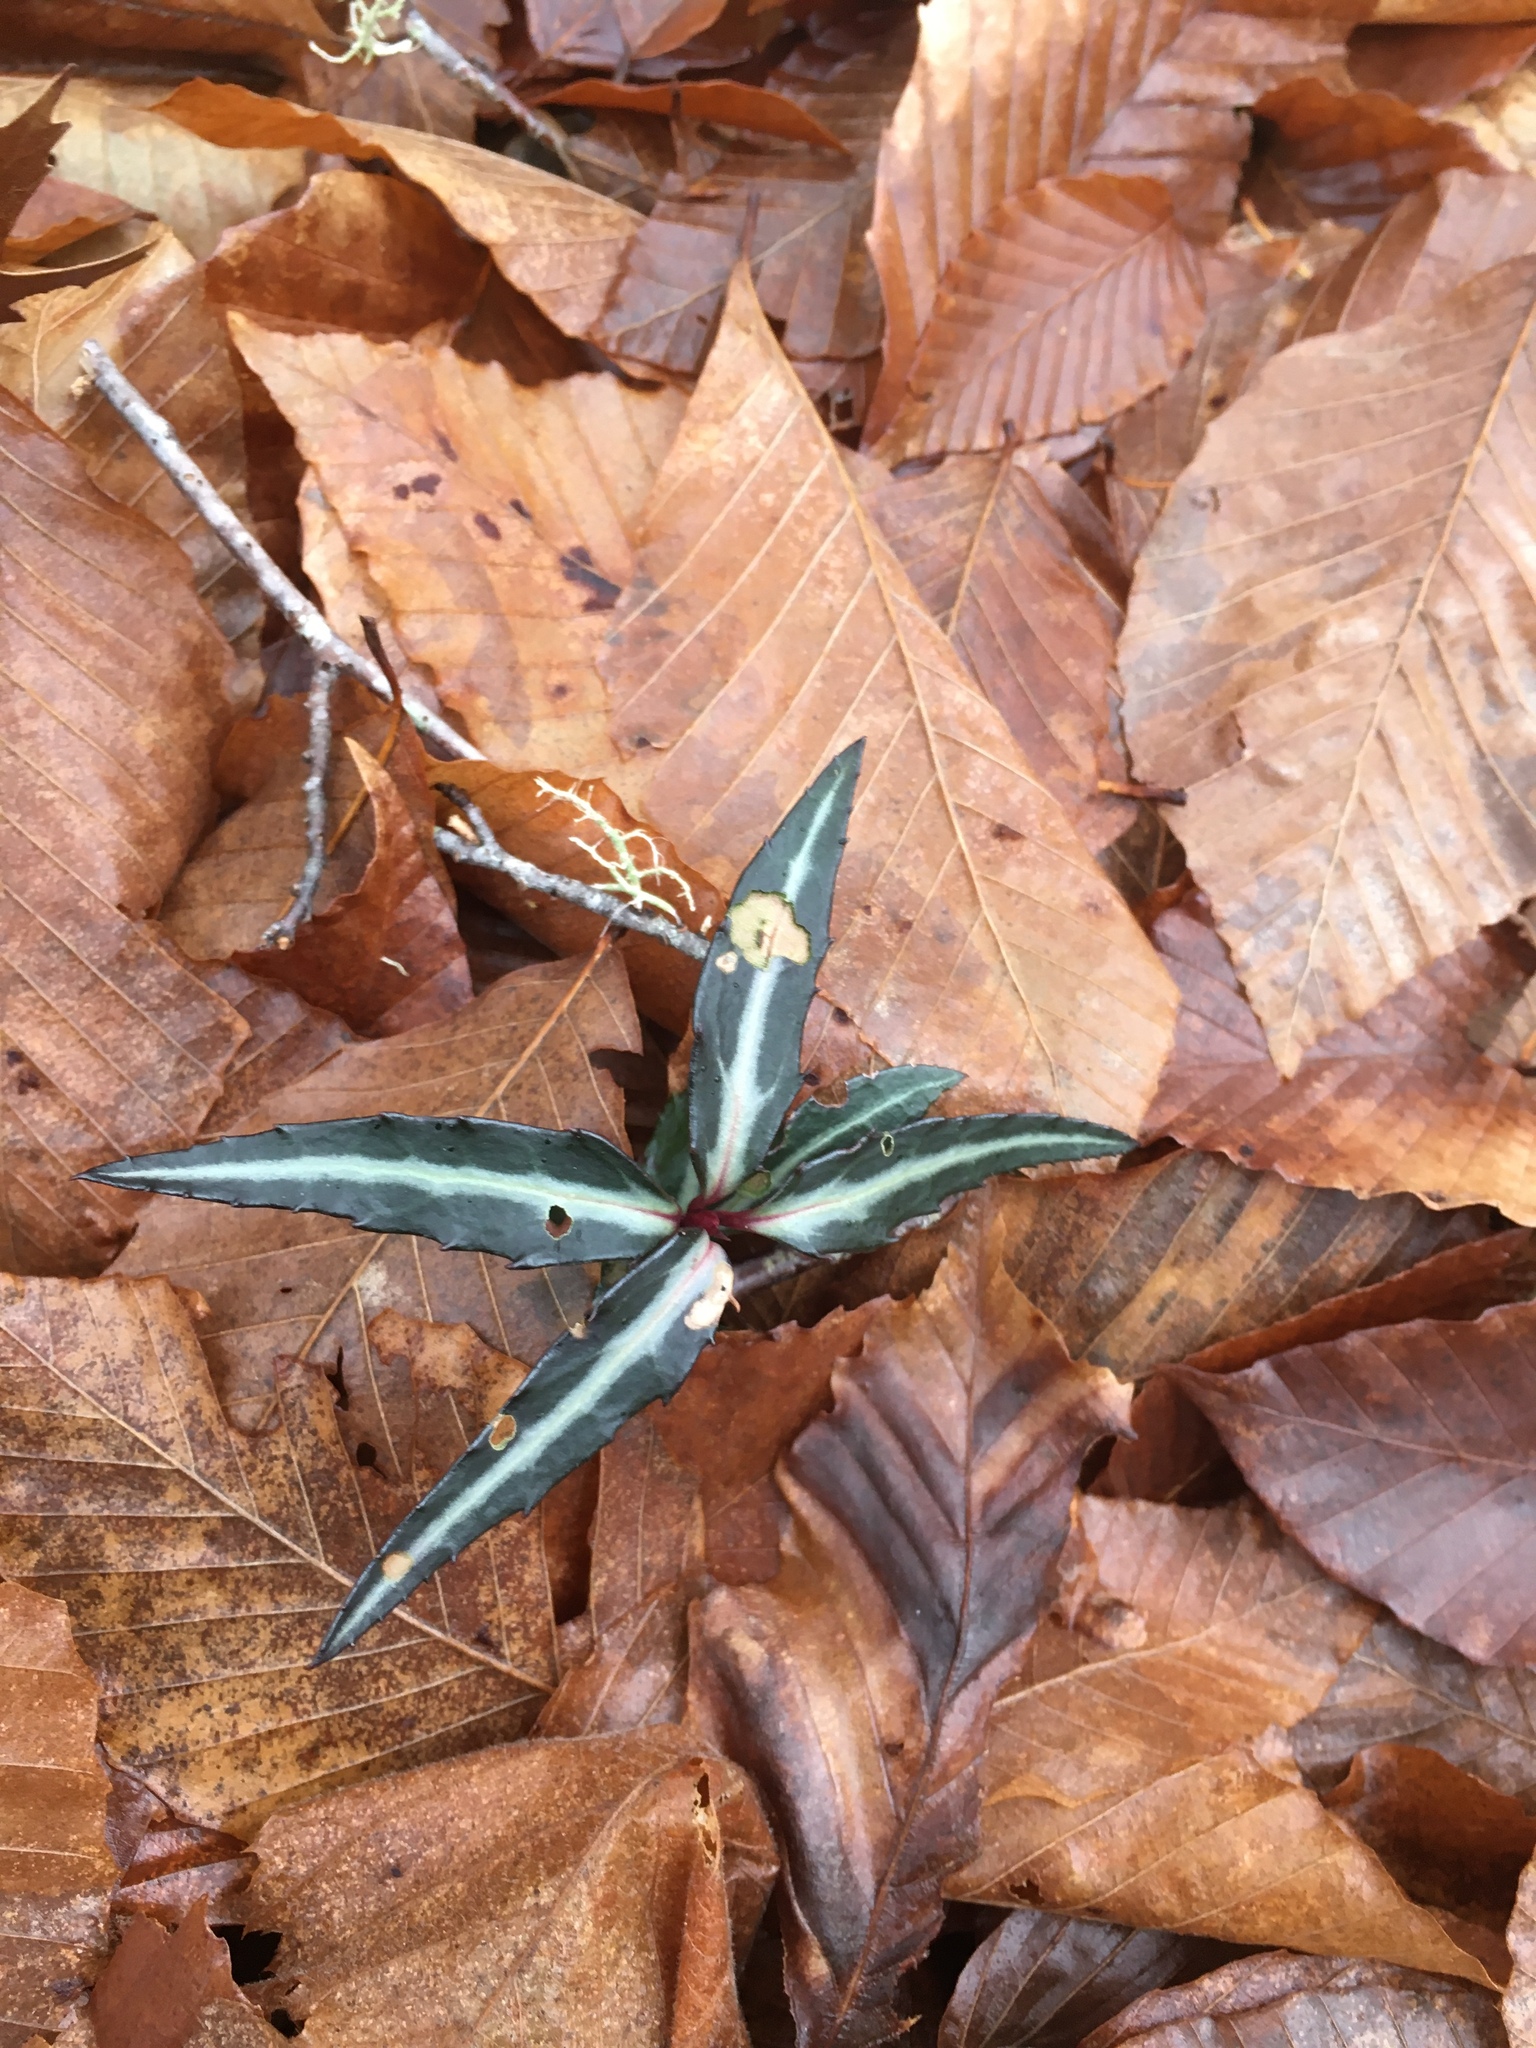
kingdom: Plantae
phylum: Tracheophyta
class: Magnoliopsida
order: Ericales
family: Ericaceae
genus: Chimaphila
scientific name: Chimaphila maculata
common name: Spotted pipsissewa
